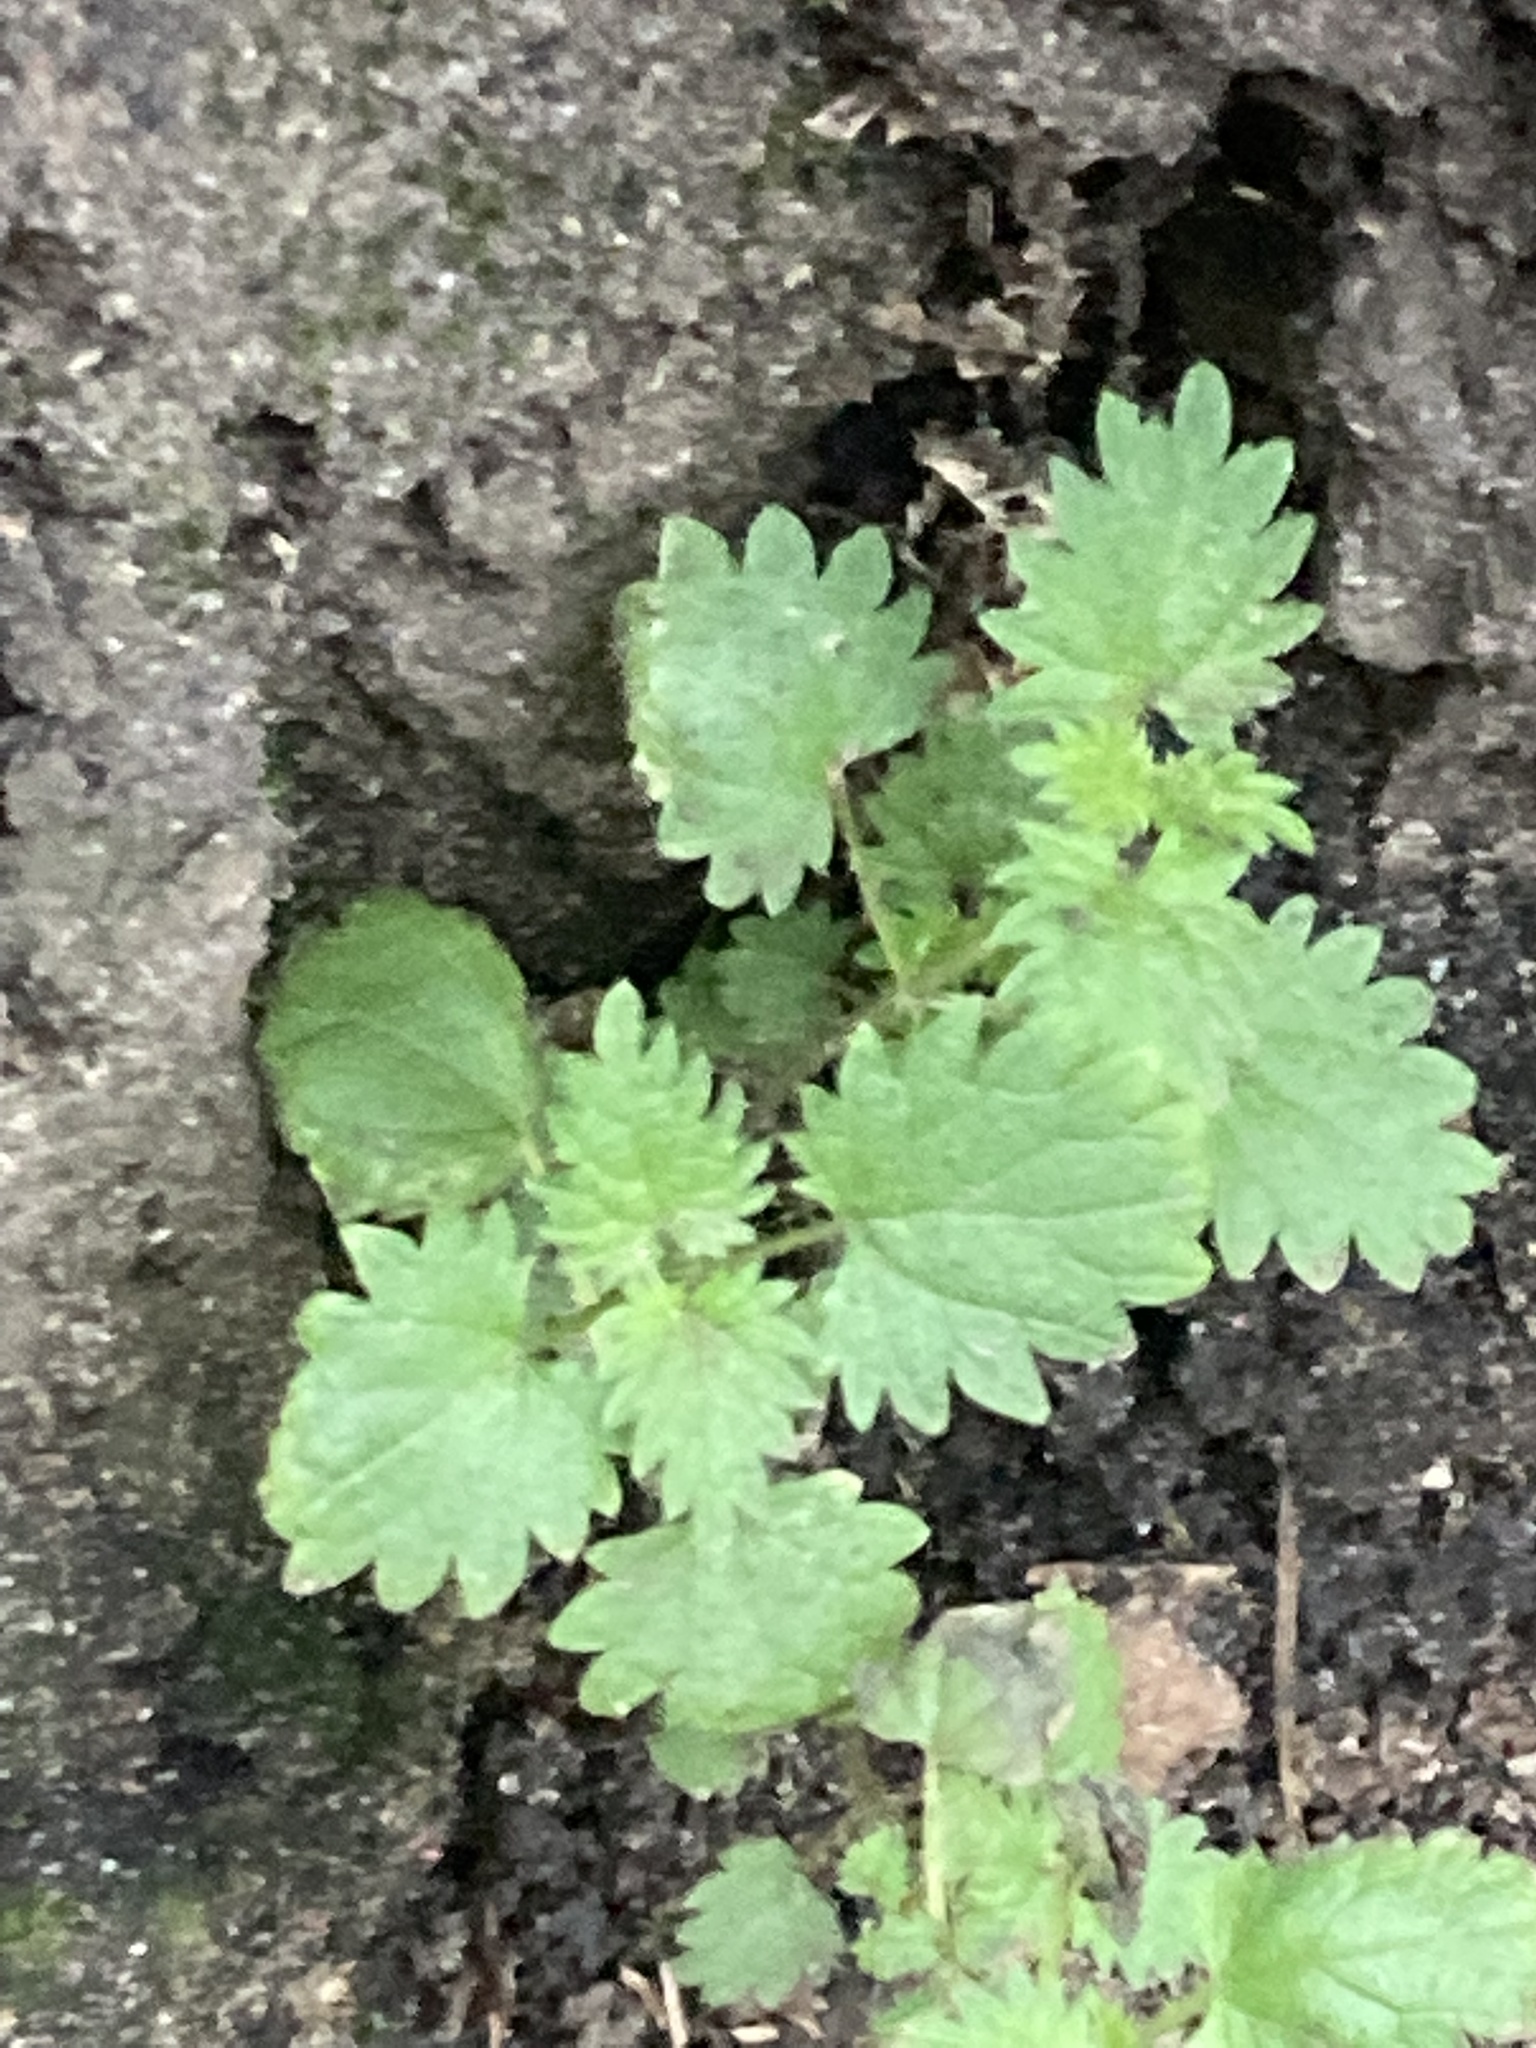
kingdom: Plantae
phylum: Tracheophyta
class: Magnoliopsida
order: Rosales
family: Urticaceae
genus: Urtica
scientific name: Urtica dioica
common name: Common nettle
